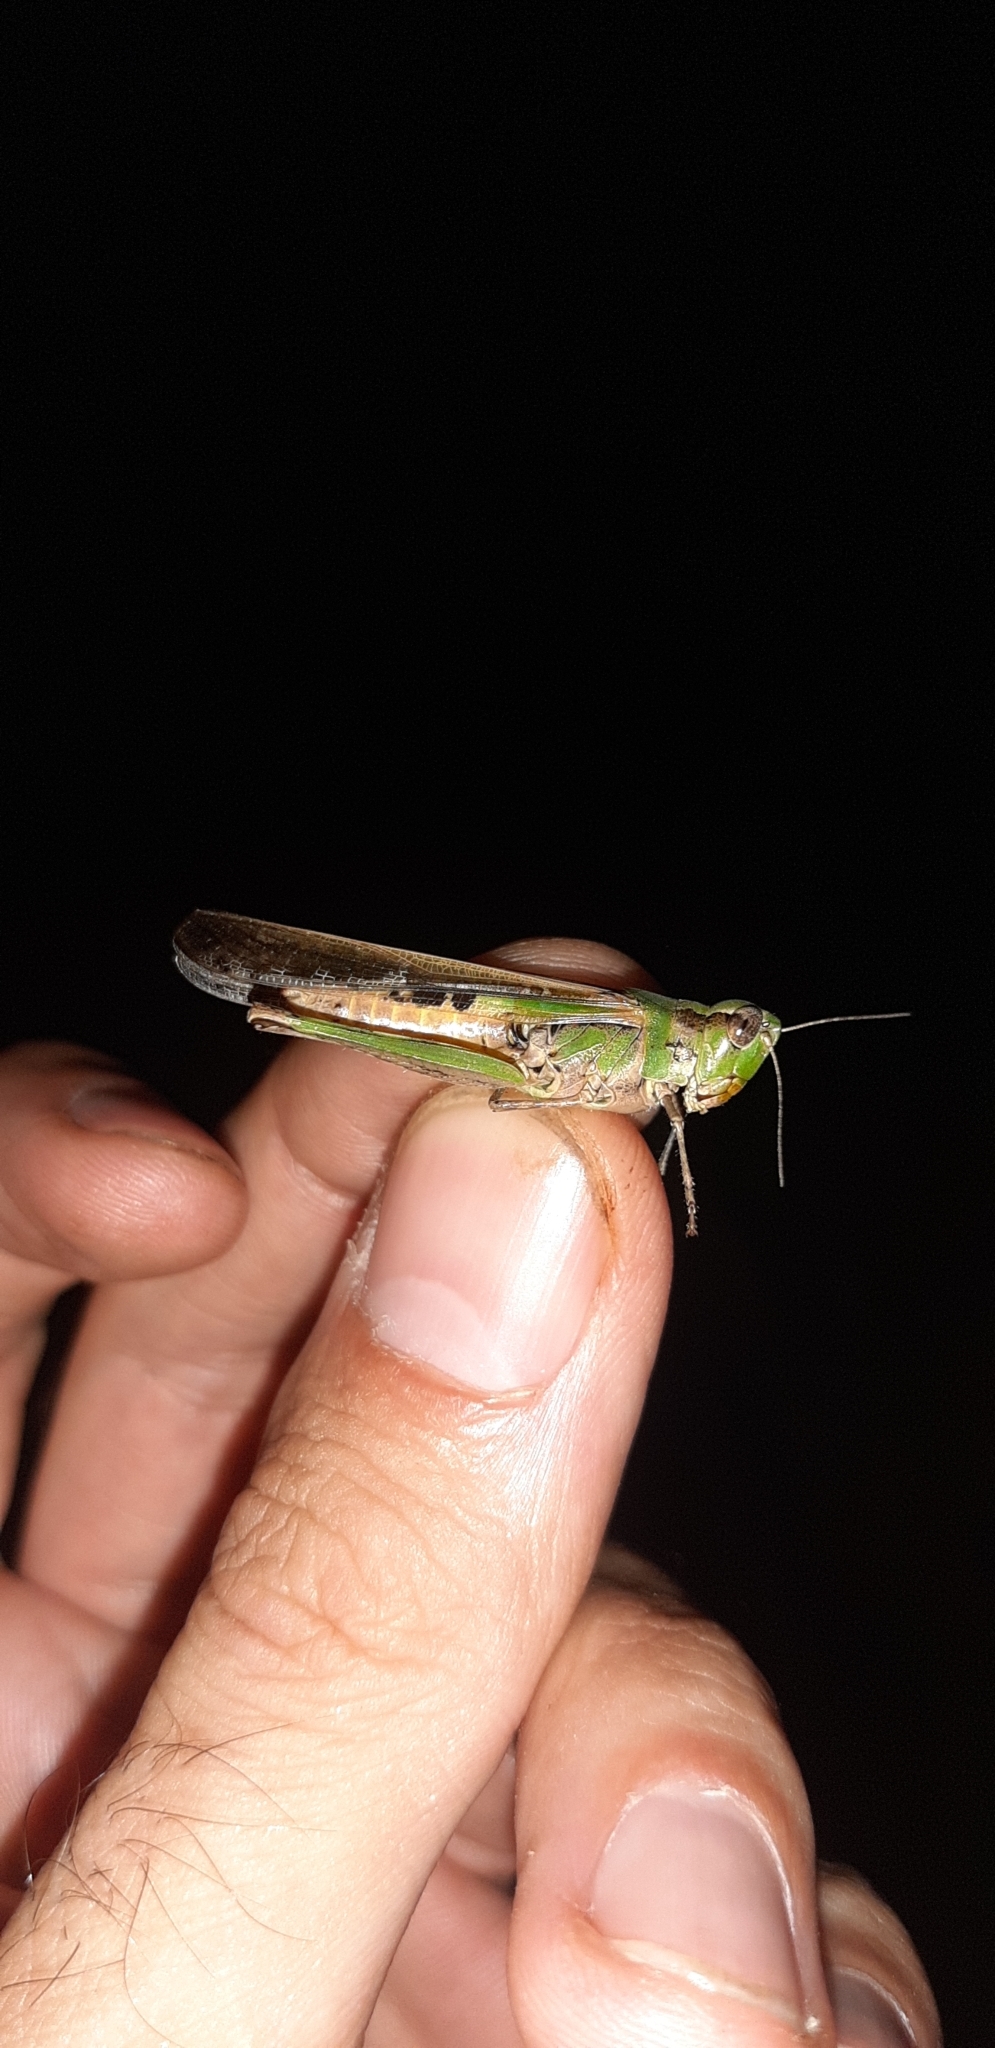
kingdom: Animalia
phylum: Arthropoda
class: Insecta
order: Orthoptera
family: Acrididae
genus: Aiolopus
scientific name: Aiolopus thalassinus
